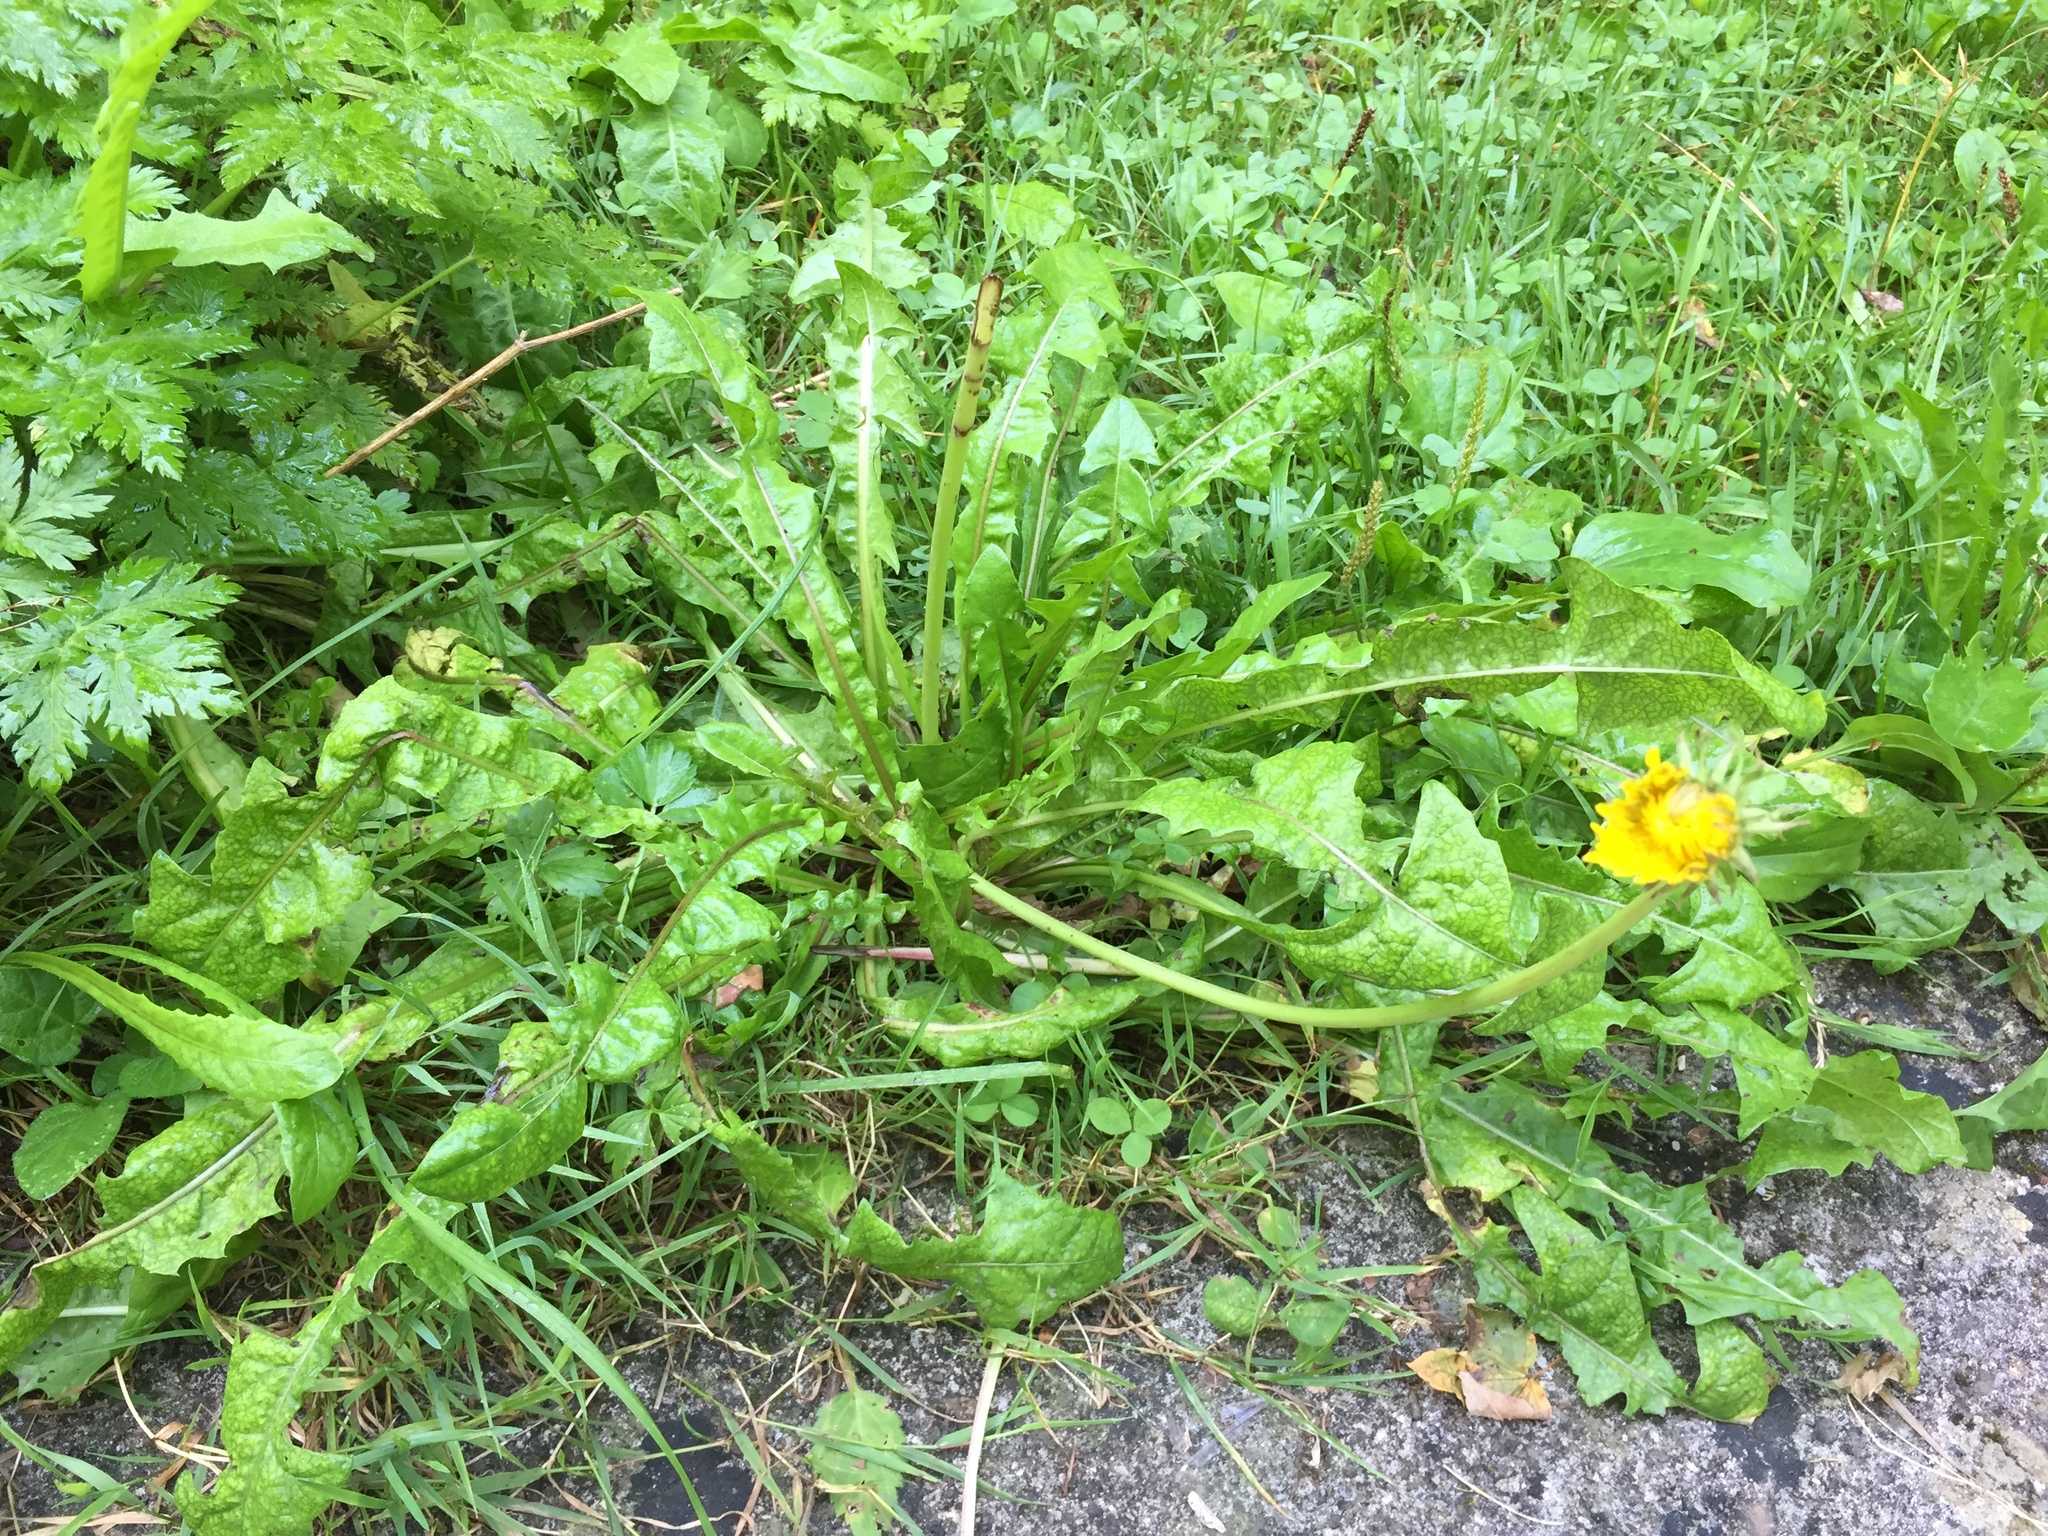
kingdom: Plantae
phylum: Tracheophyta
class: Magnoliopsida
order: Asterales
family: Asteraceae
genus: Taraxacum
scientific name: Taraxacum officinale
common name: Common dandelion
